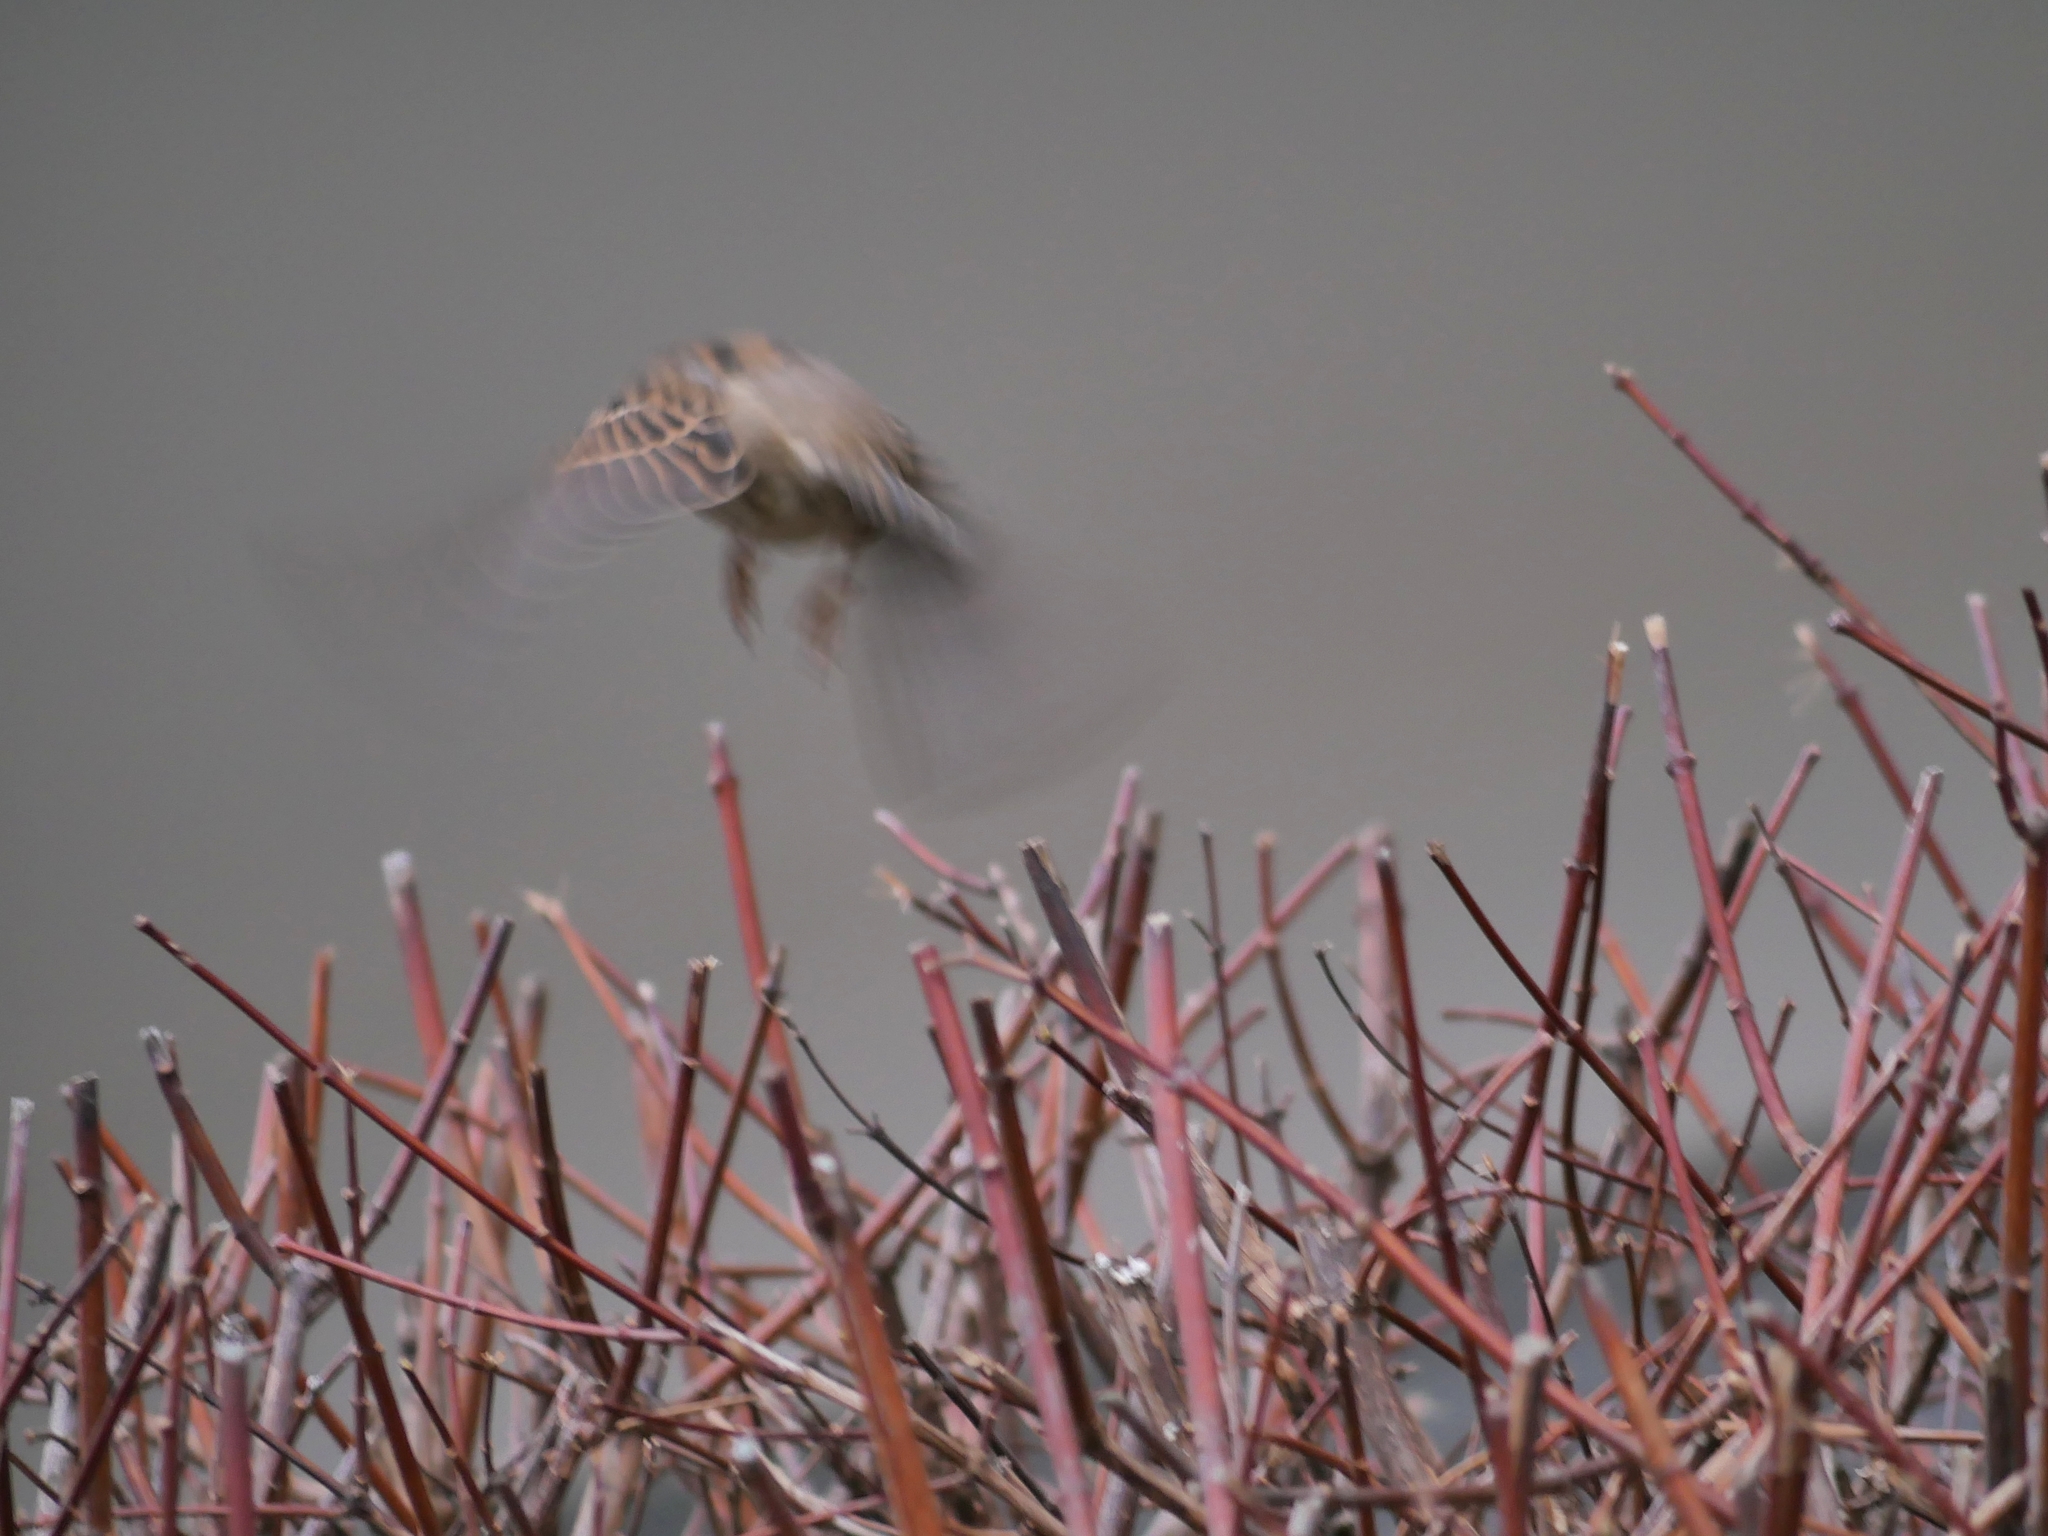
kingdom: Animalia
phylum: Chordata
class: Aves
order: Passeriformes
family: Passeridae
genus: Passer
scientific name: Passer domesticus
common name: House sparrow
